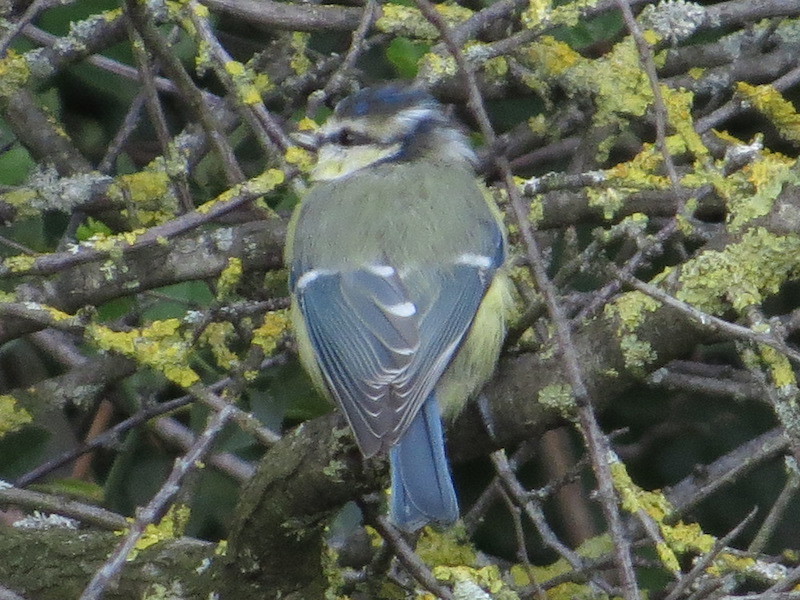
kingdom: Animalia
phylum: Chordata
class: Aves
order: Passeriformes
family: Paridae
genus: Cyanistes
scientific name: Cyanistes caeruleus
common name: Eurasian blue tit
